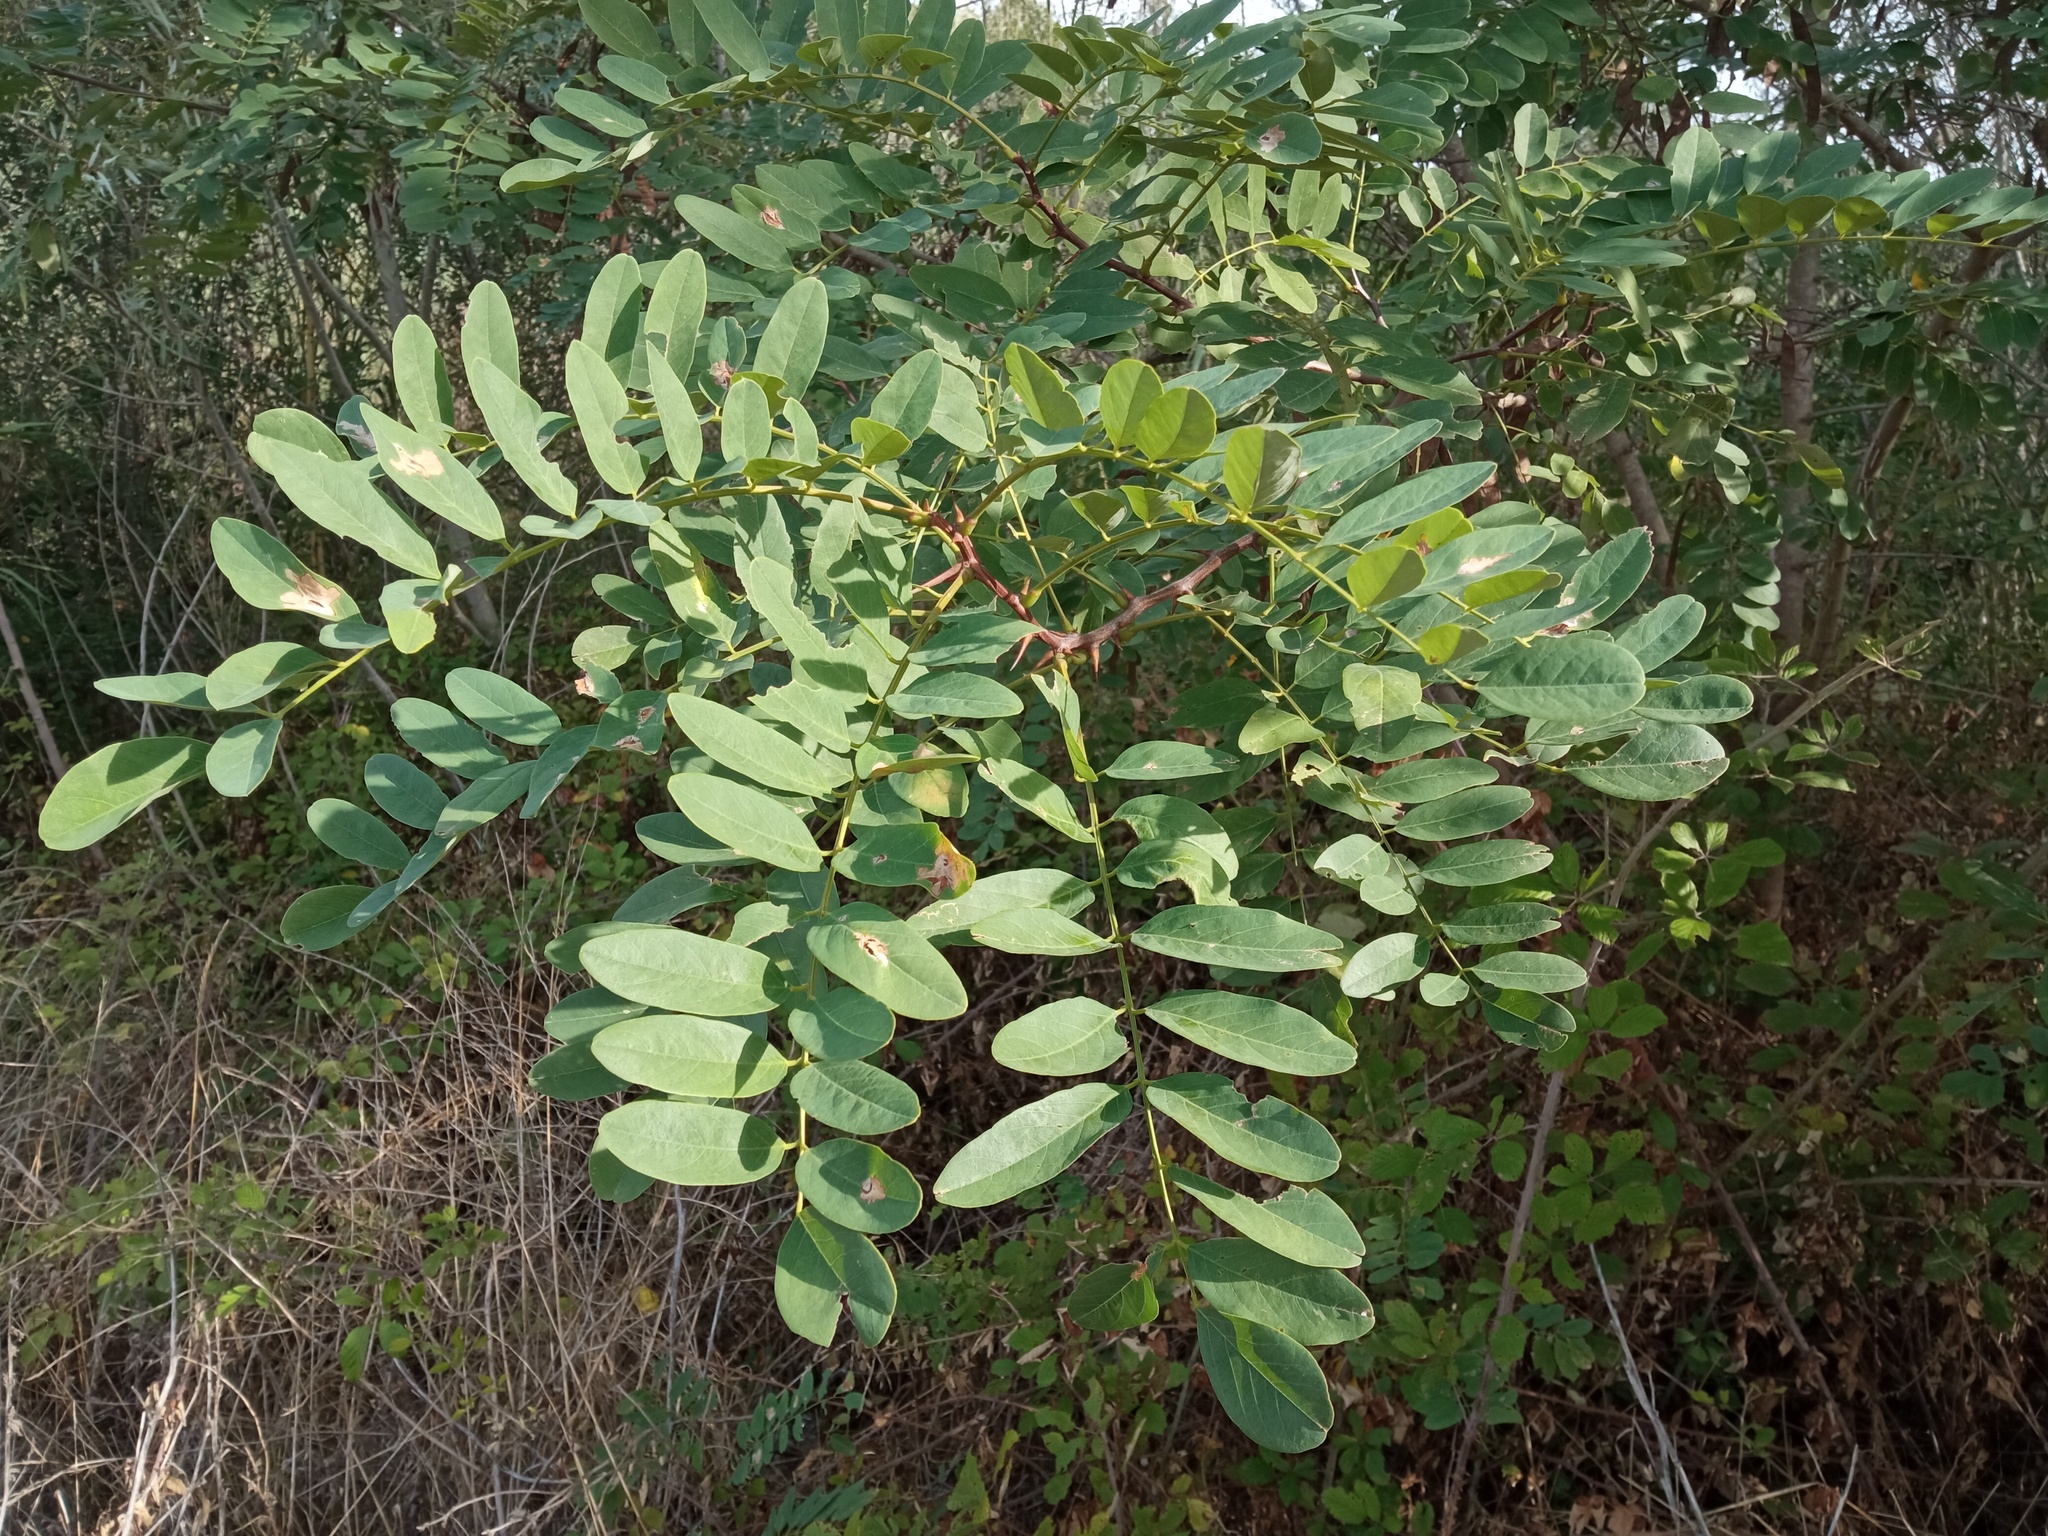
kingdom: Plantae
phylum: Tracheophyta
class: Magnoliopsida
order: Fabales
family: Fabaceae
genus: Robinia
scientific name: Robinia pseudoacacia
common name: Black locust
